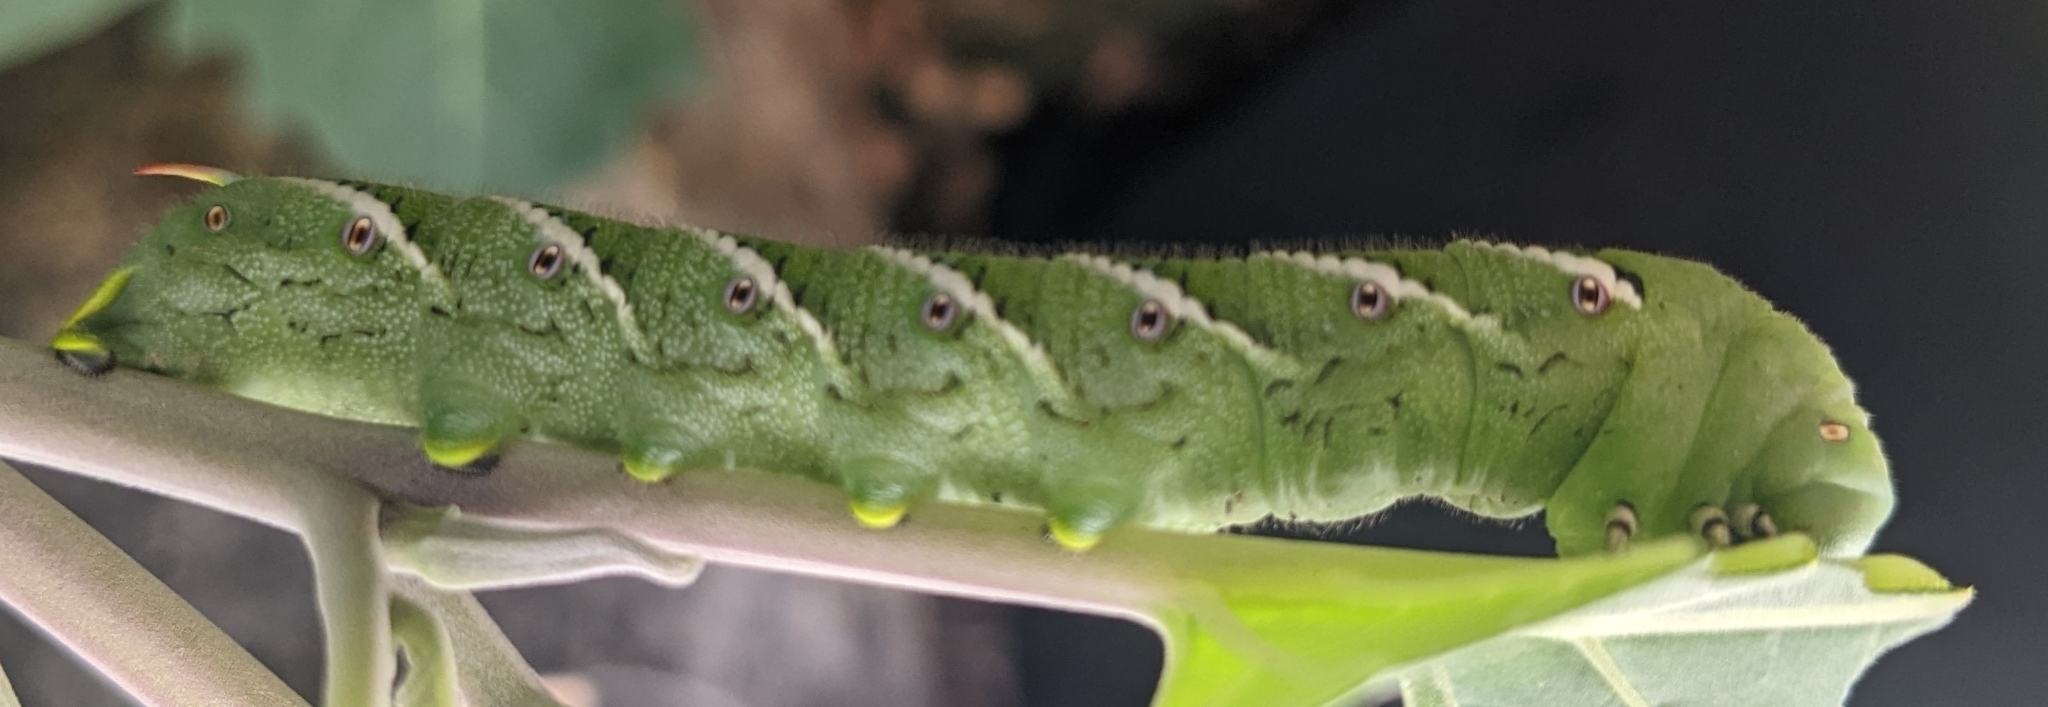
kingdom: Animalia
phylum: Arthropoda
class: Insecta
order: Lepidoptera
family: Sphingidae
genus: Manduca
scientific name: Manduca sexta
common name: Carolina sphinx
